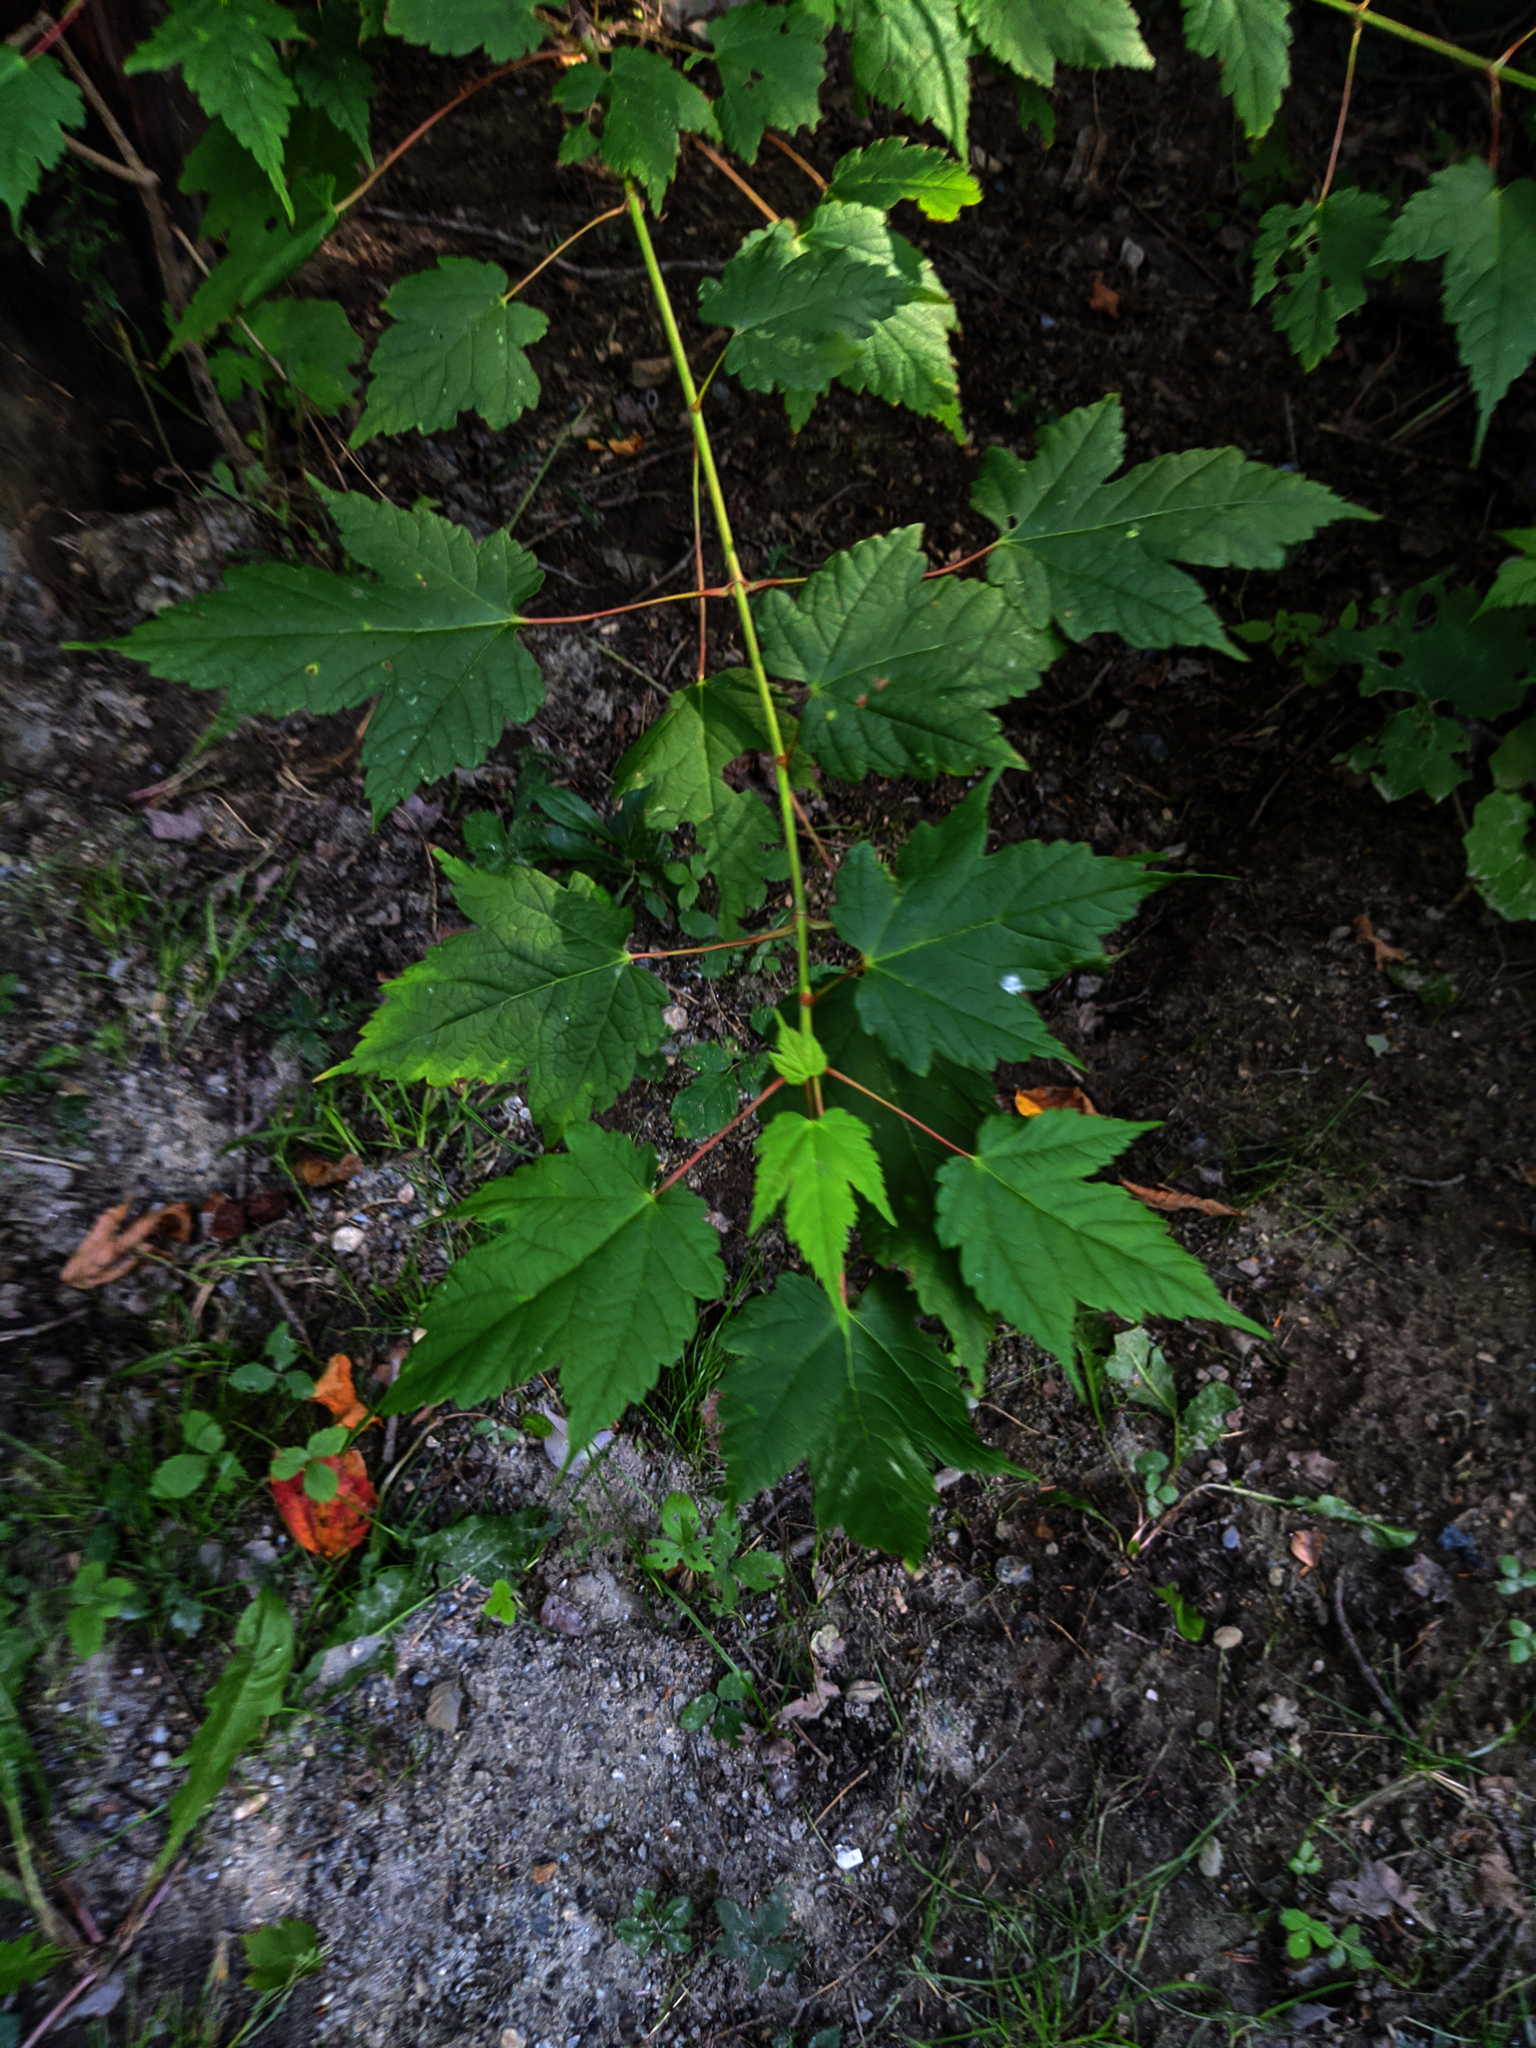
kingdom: Plantae
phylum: Tracheophyta
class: Magnoliopsida
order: Sapindales
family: Sapindaceae
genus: Acer
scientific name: Acer spicatum
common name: Mountain maple
